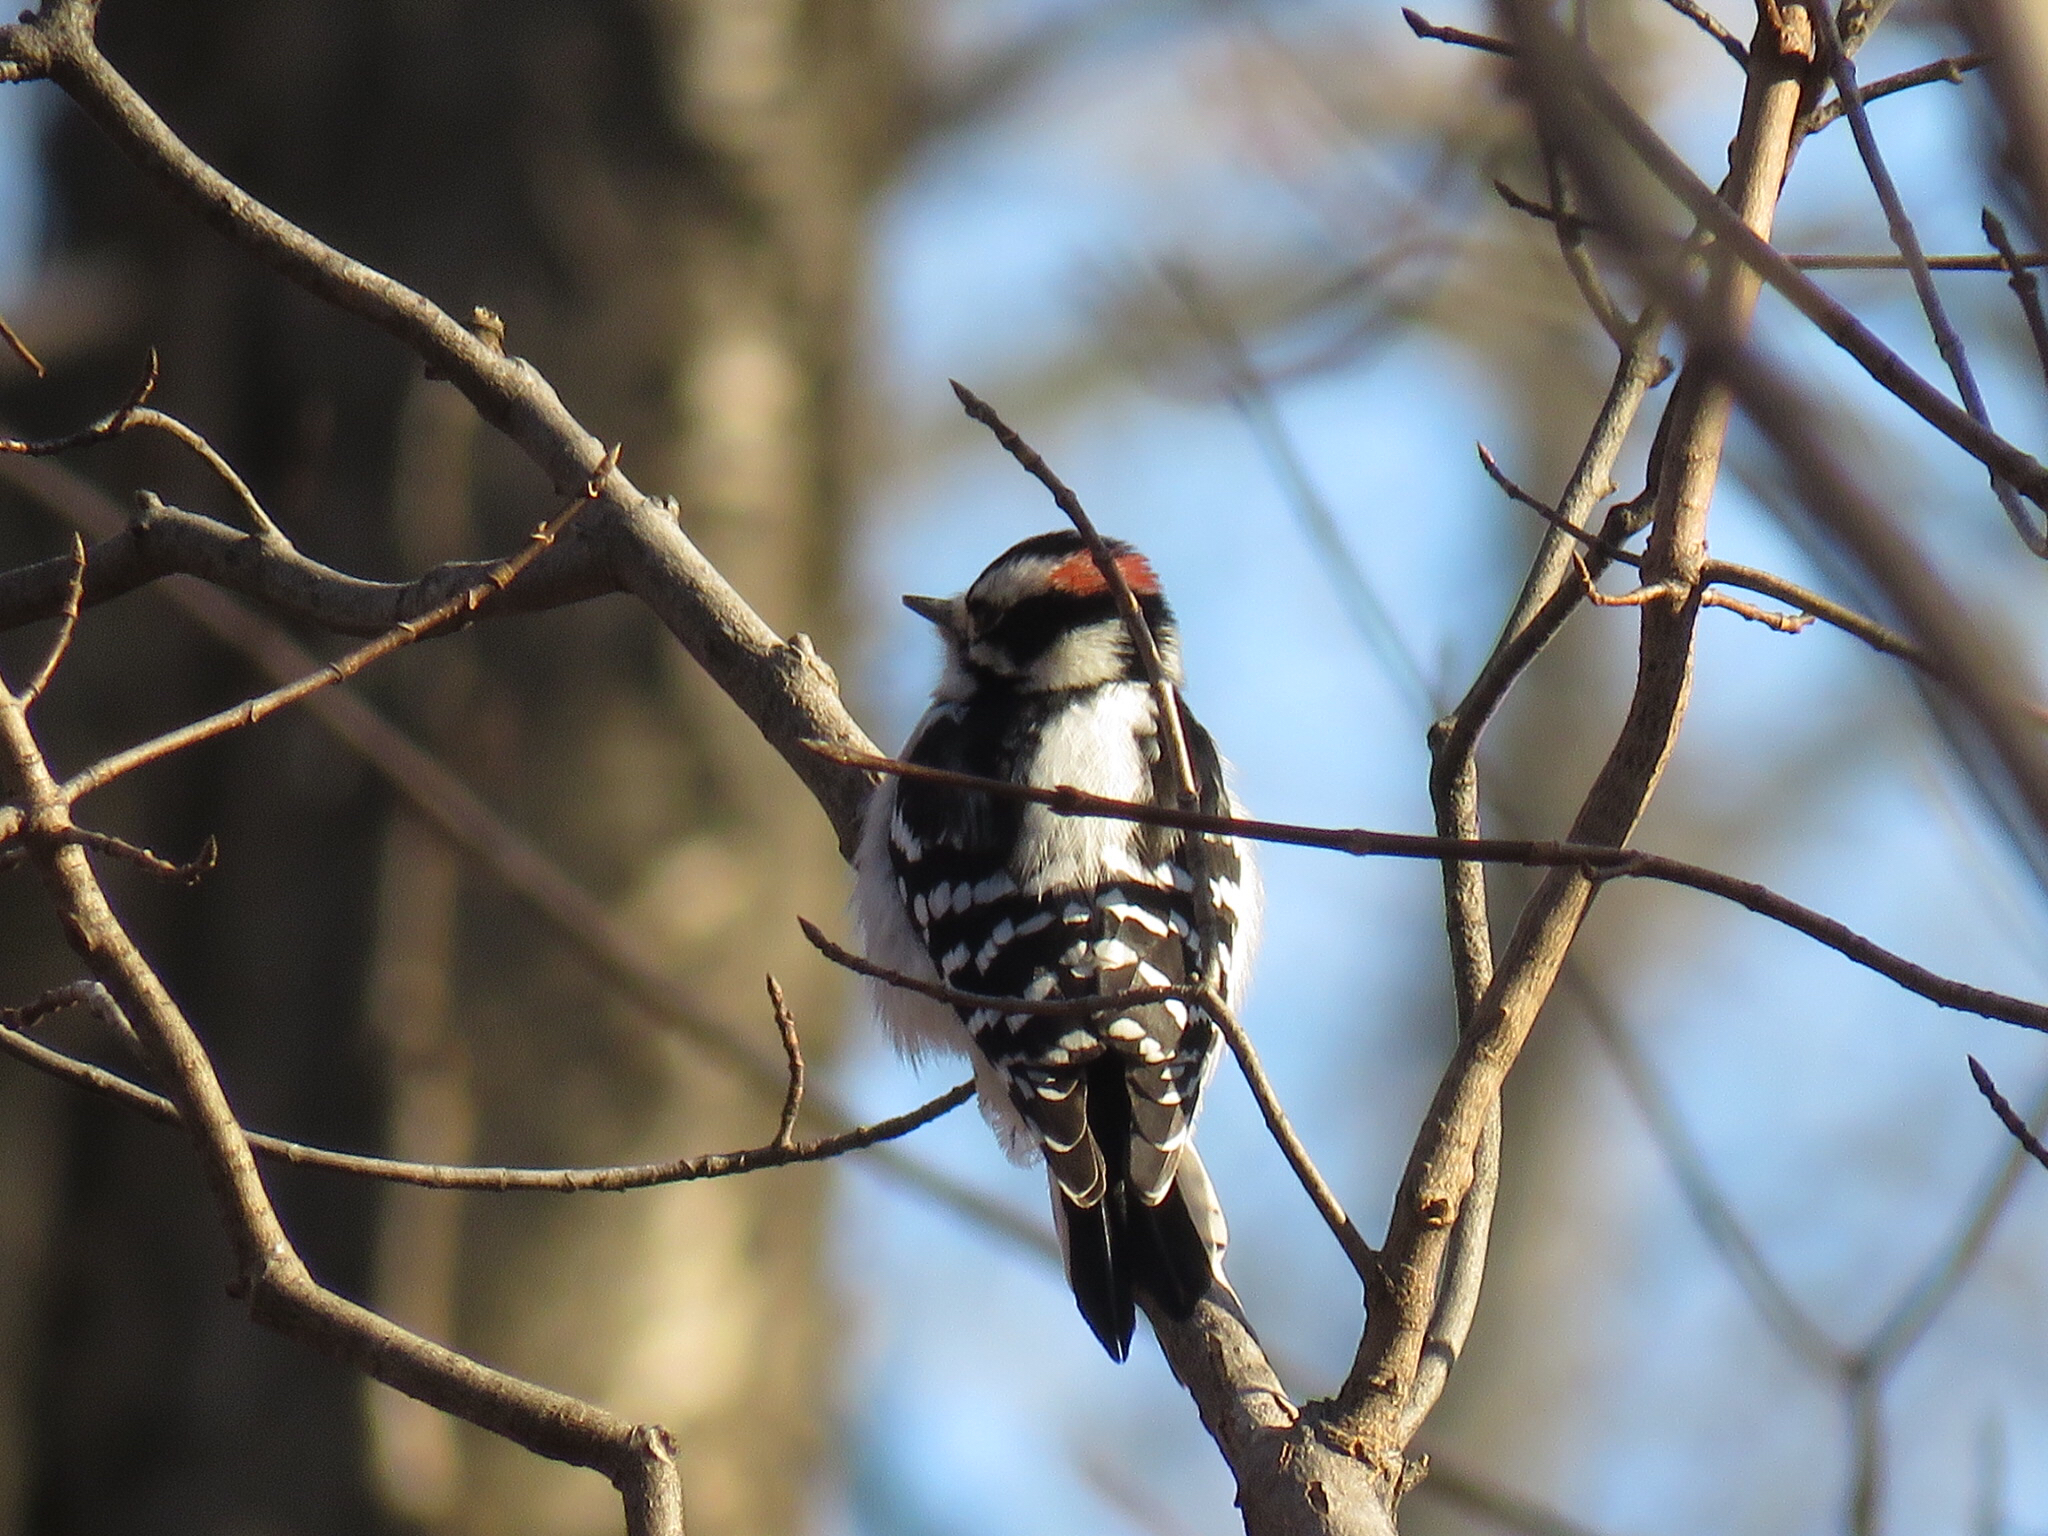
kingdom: Animalia
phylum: Chordata
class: Aves
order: Piciformes
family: Picidae
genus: Dryobates
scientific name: Dryobates pubescens
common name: Downy woodpecker
